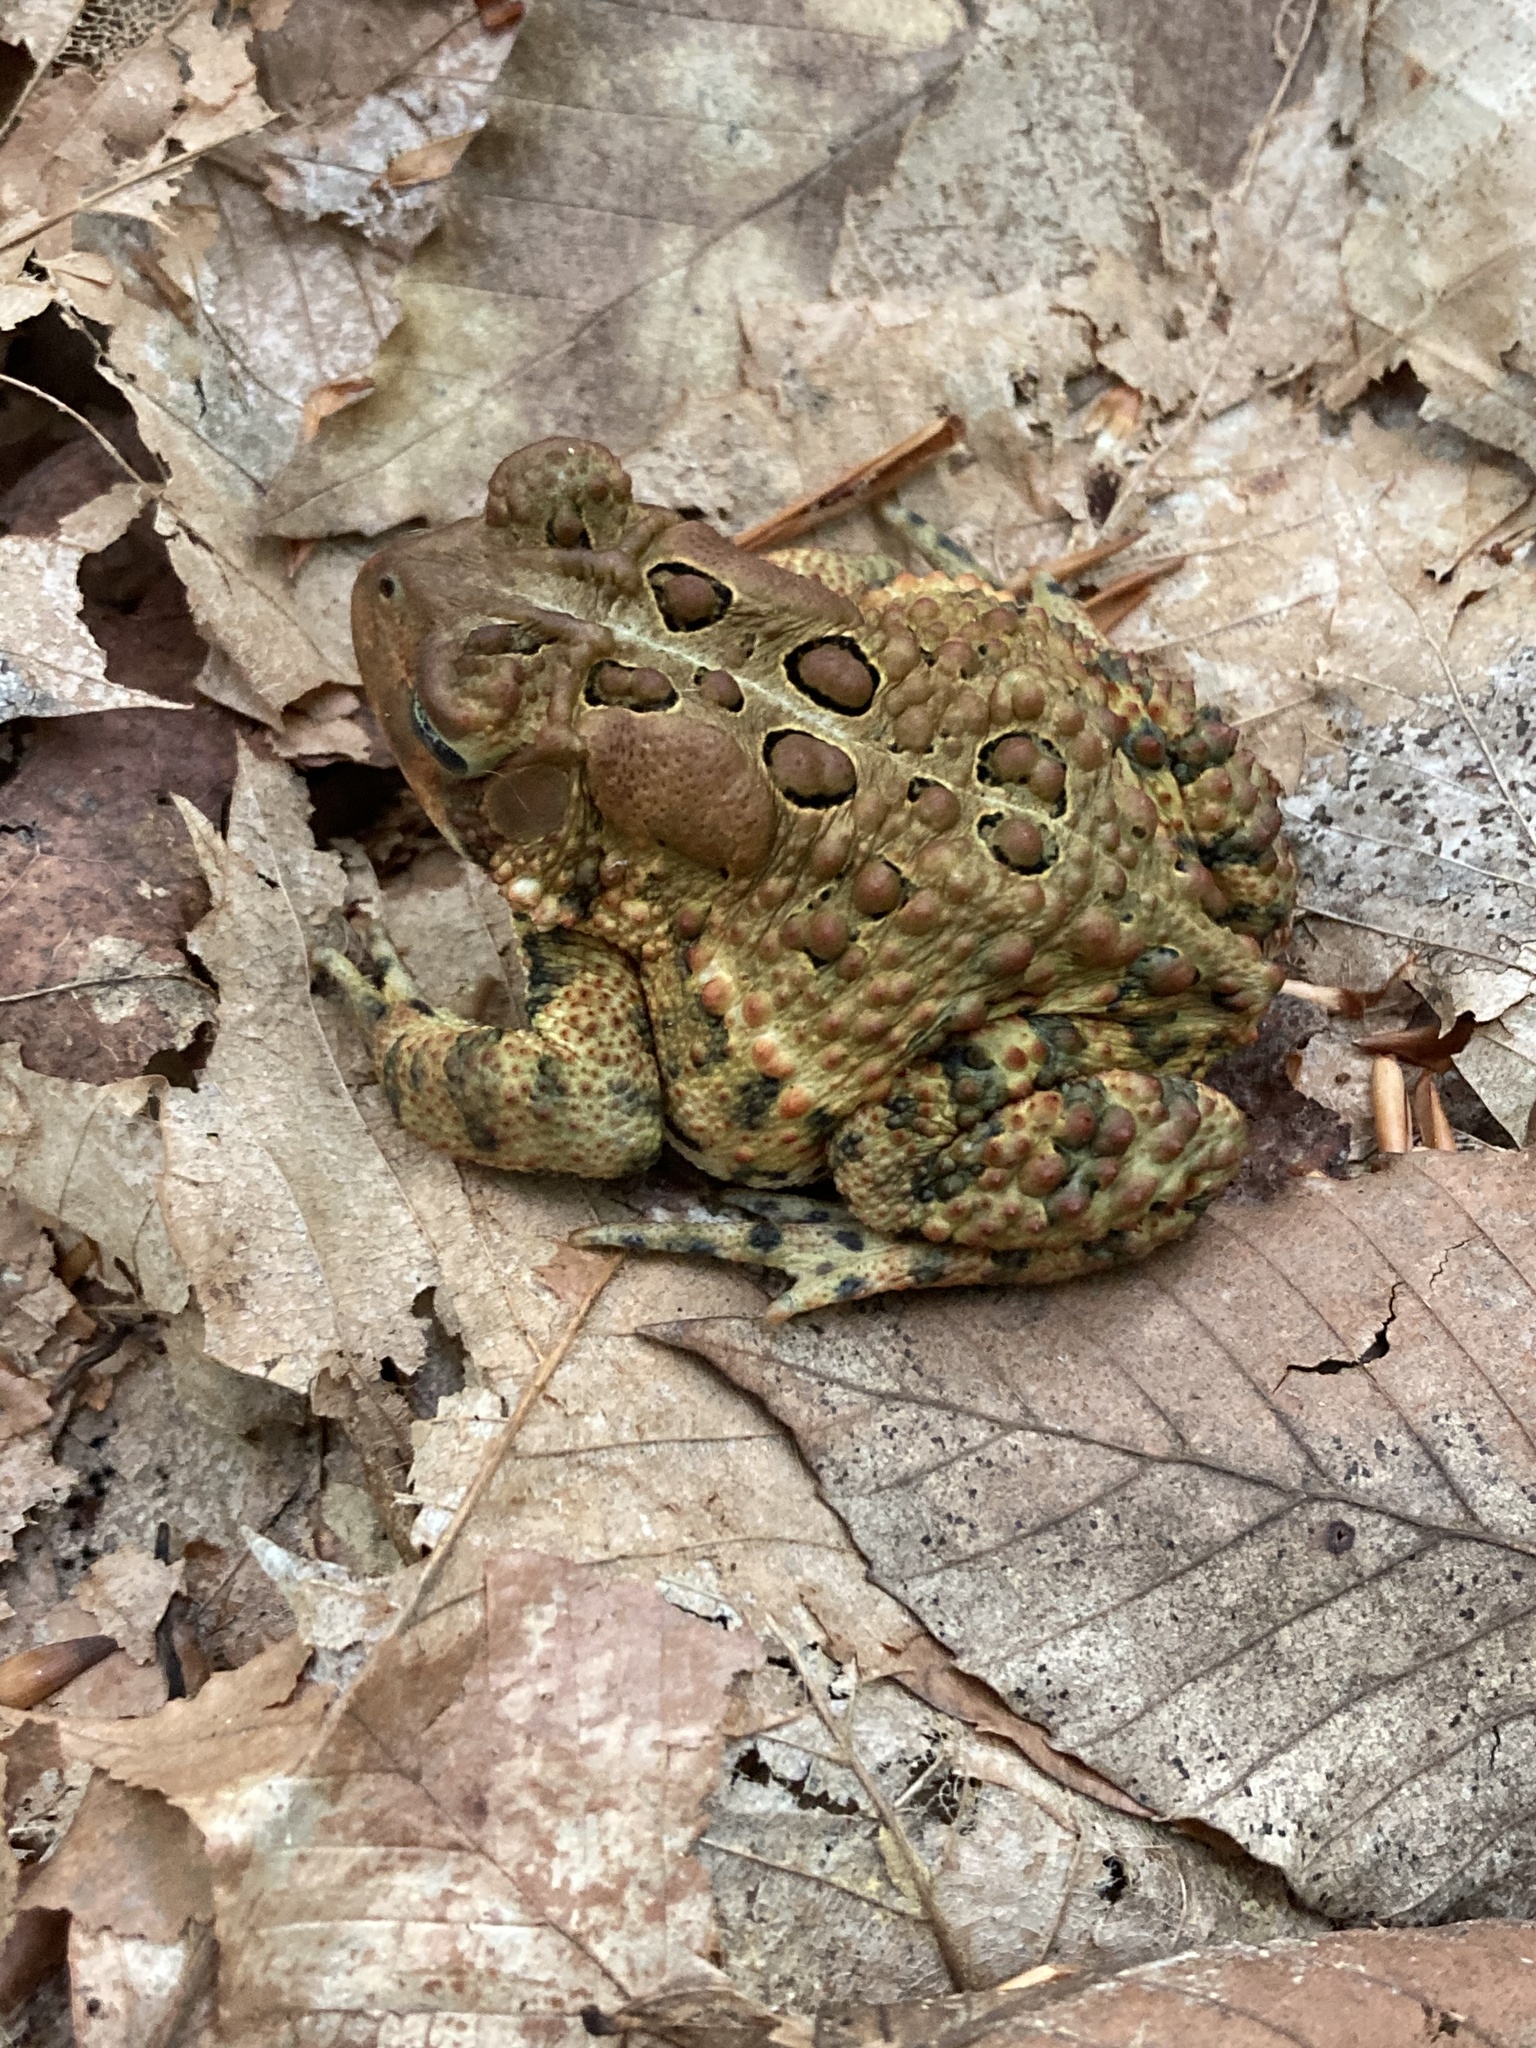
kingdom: Animalia
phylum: Chordata
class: Amphibia
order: Anura
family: Bufonidae
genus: Anaxyrus
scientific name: Anaxyrus americanus
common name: American toad
